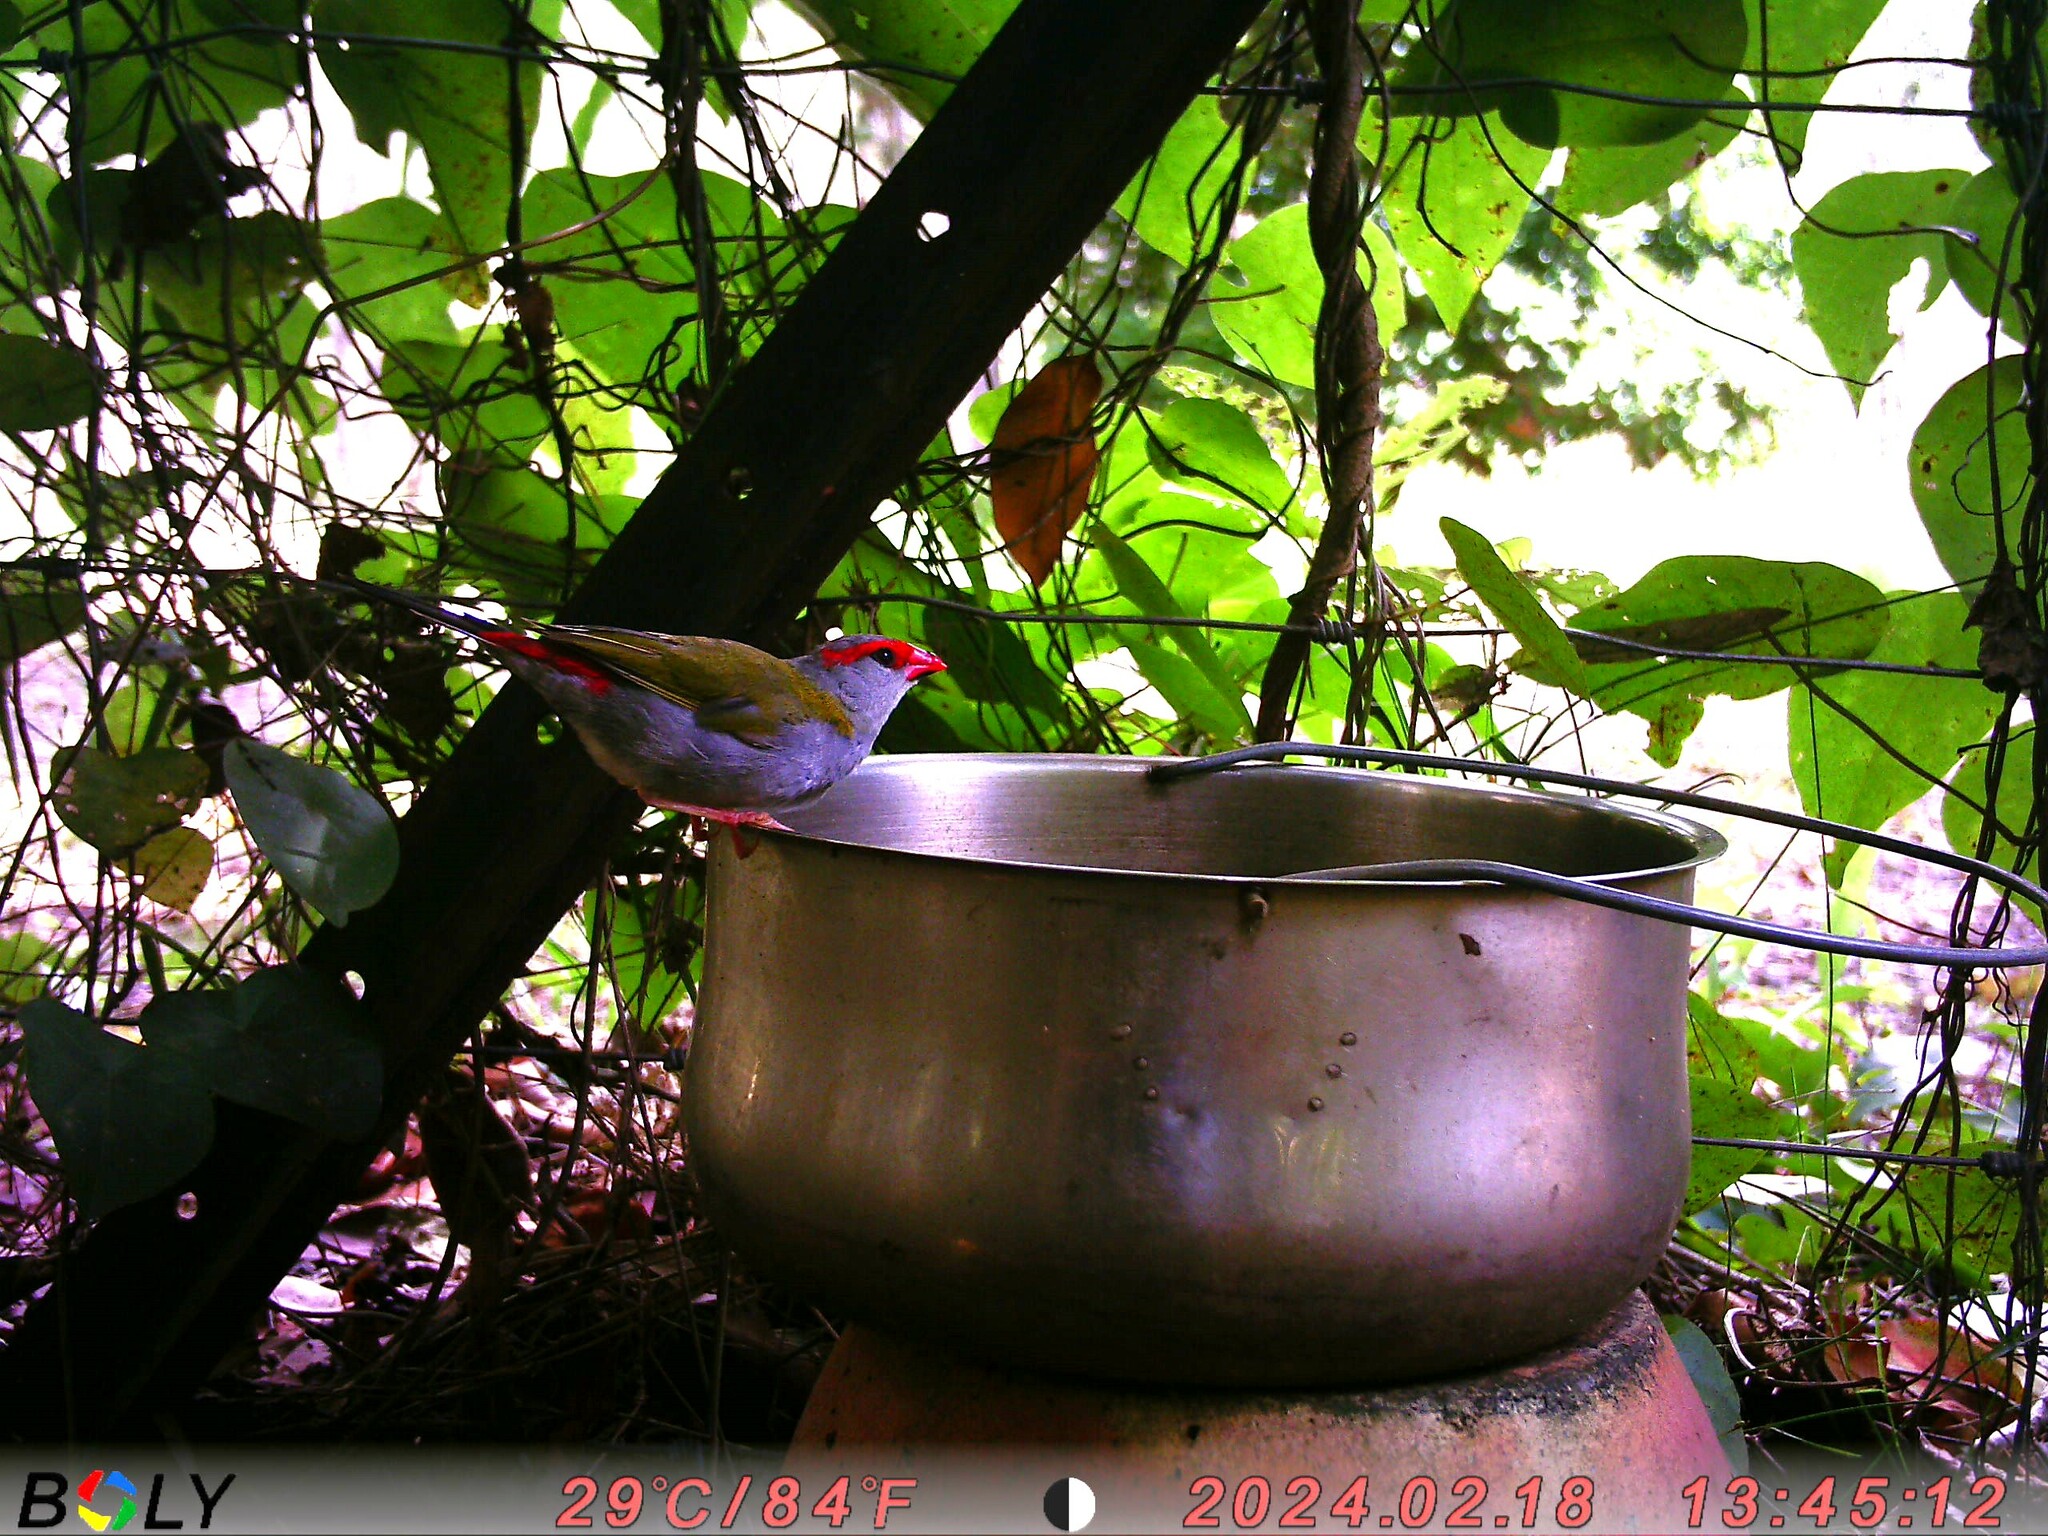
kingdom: Animalia
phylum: Chordata
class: Aves
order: Passeriformes
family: Estrildidae
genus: Neochmia
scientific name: Neochmia temporalis
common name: Red-browed finch
